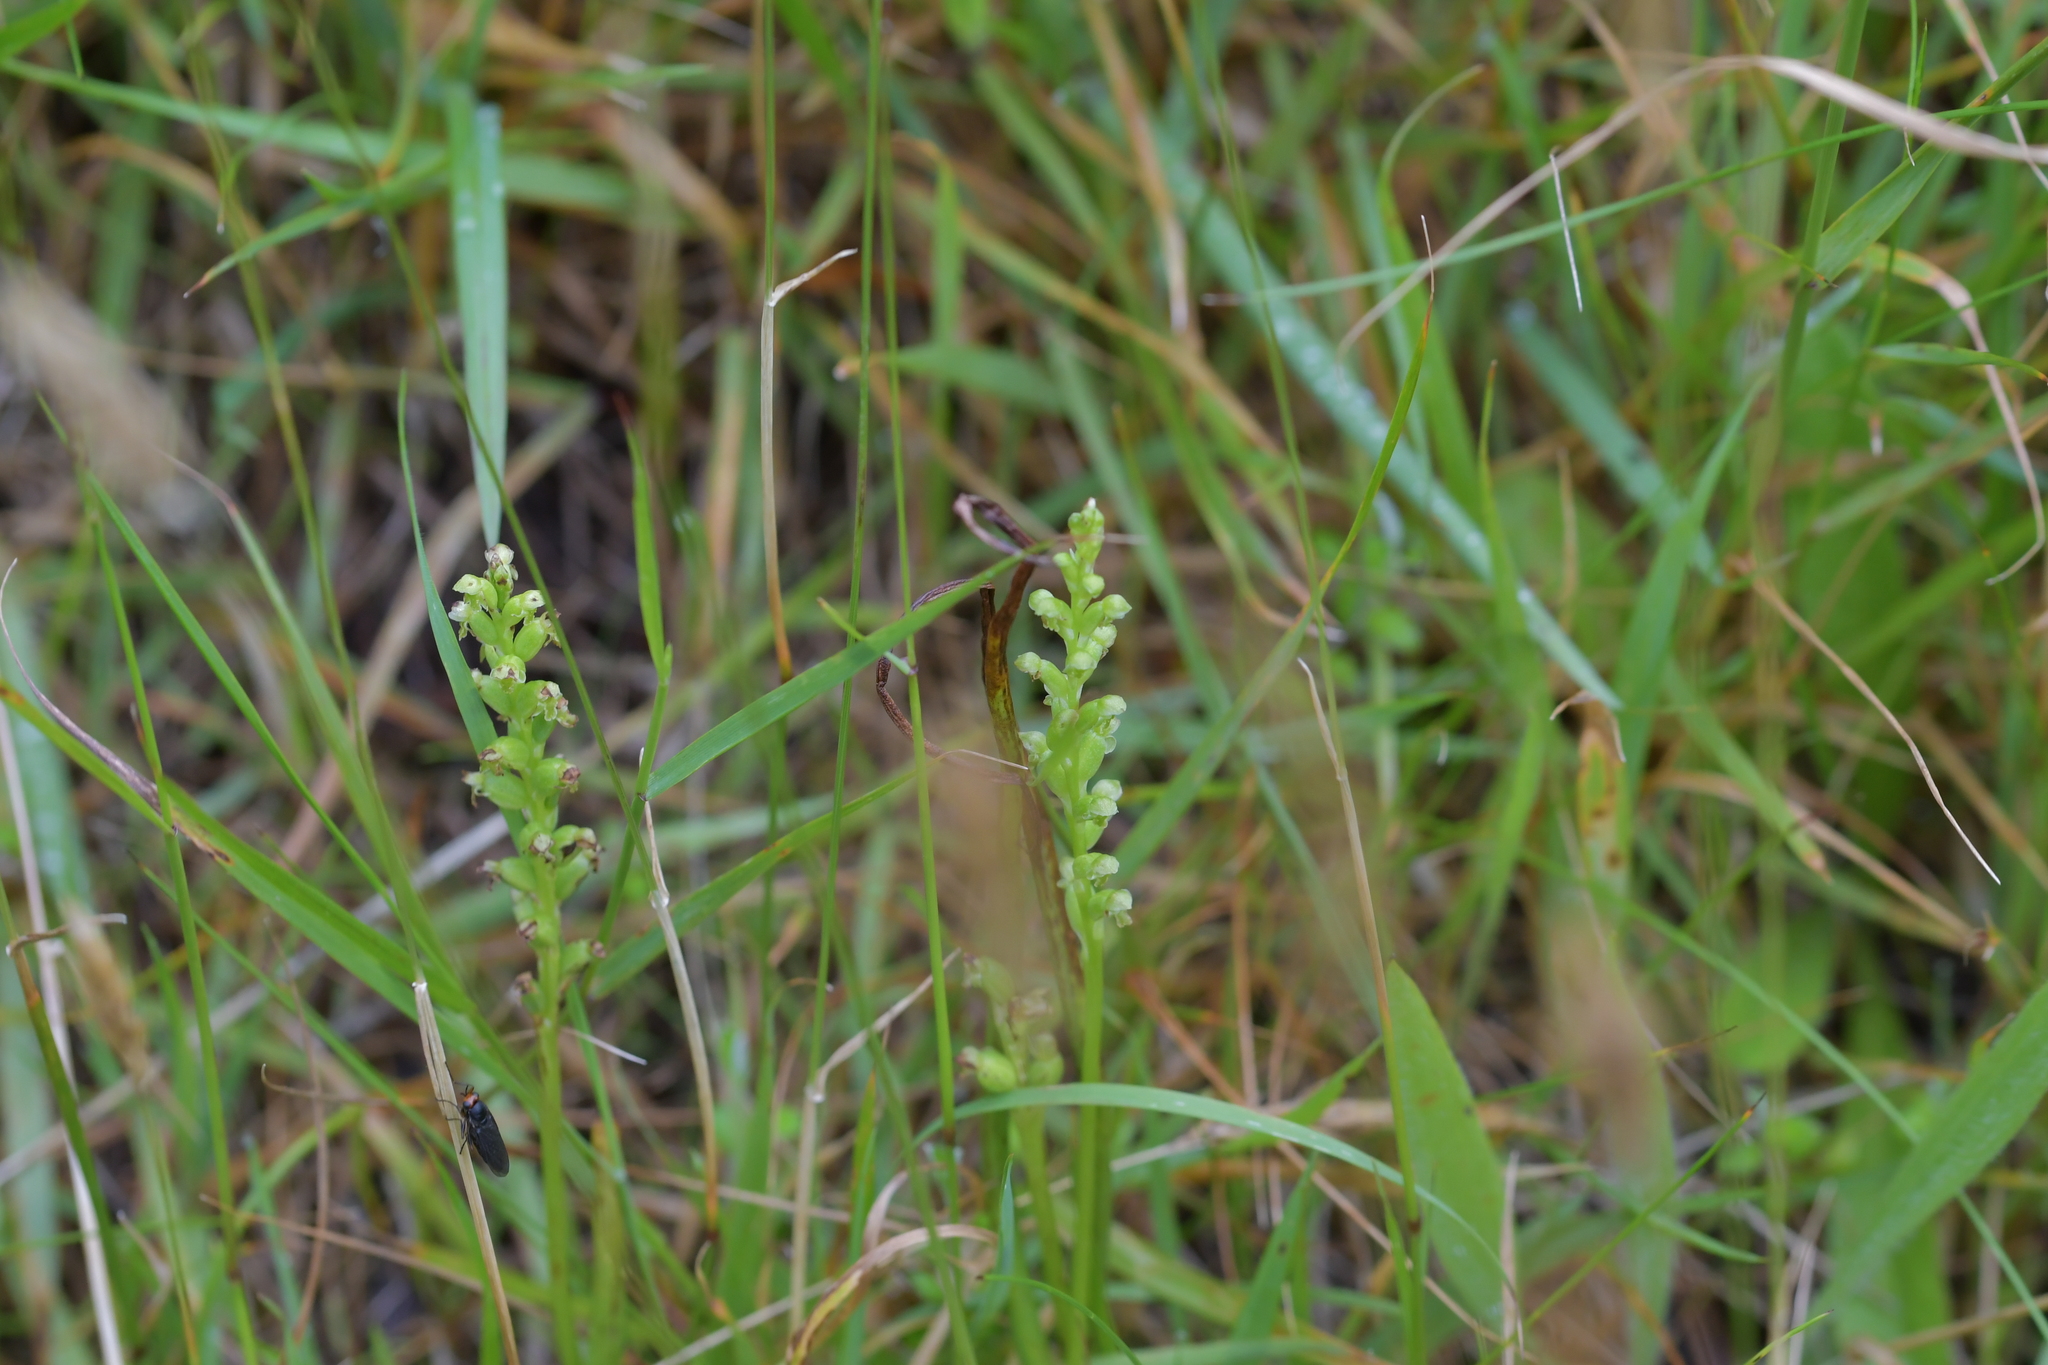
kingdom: Plantae
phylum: Tracheophyta
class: Liliopsida
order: Asparagales
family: Orchidaceae
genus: Microtis
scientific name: Microtis unifolia
